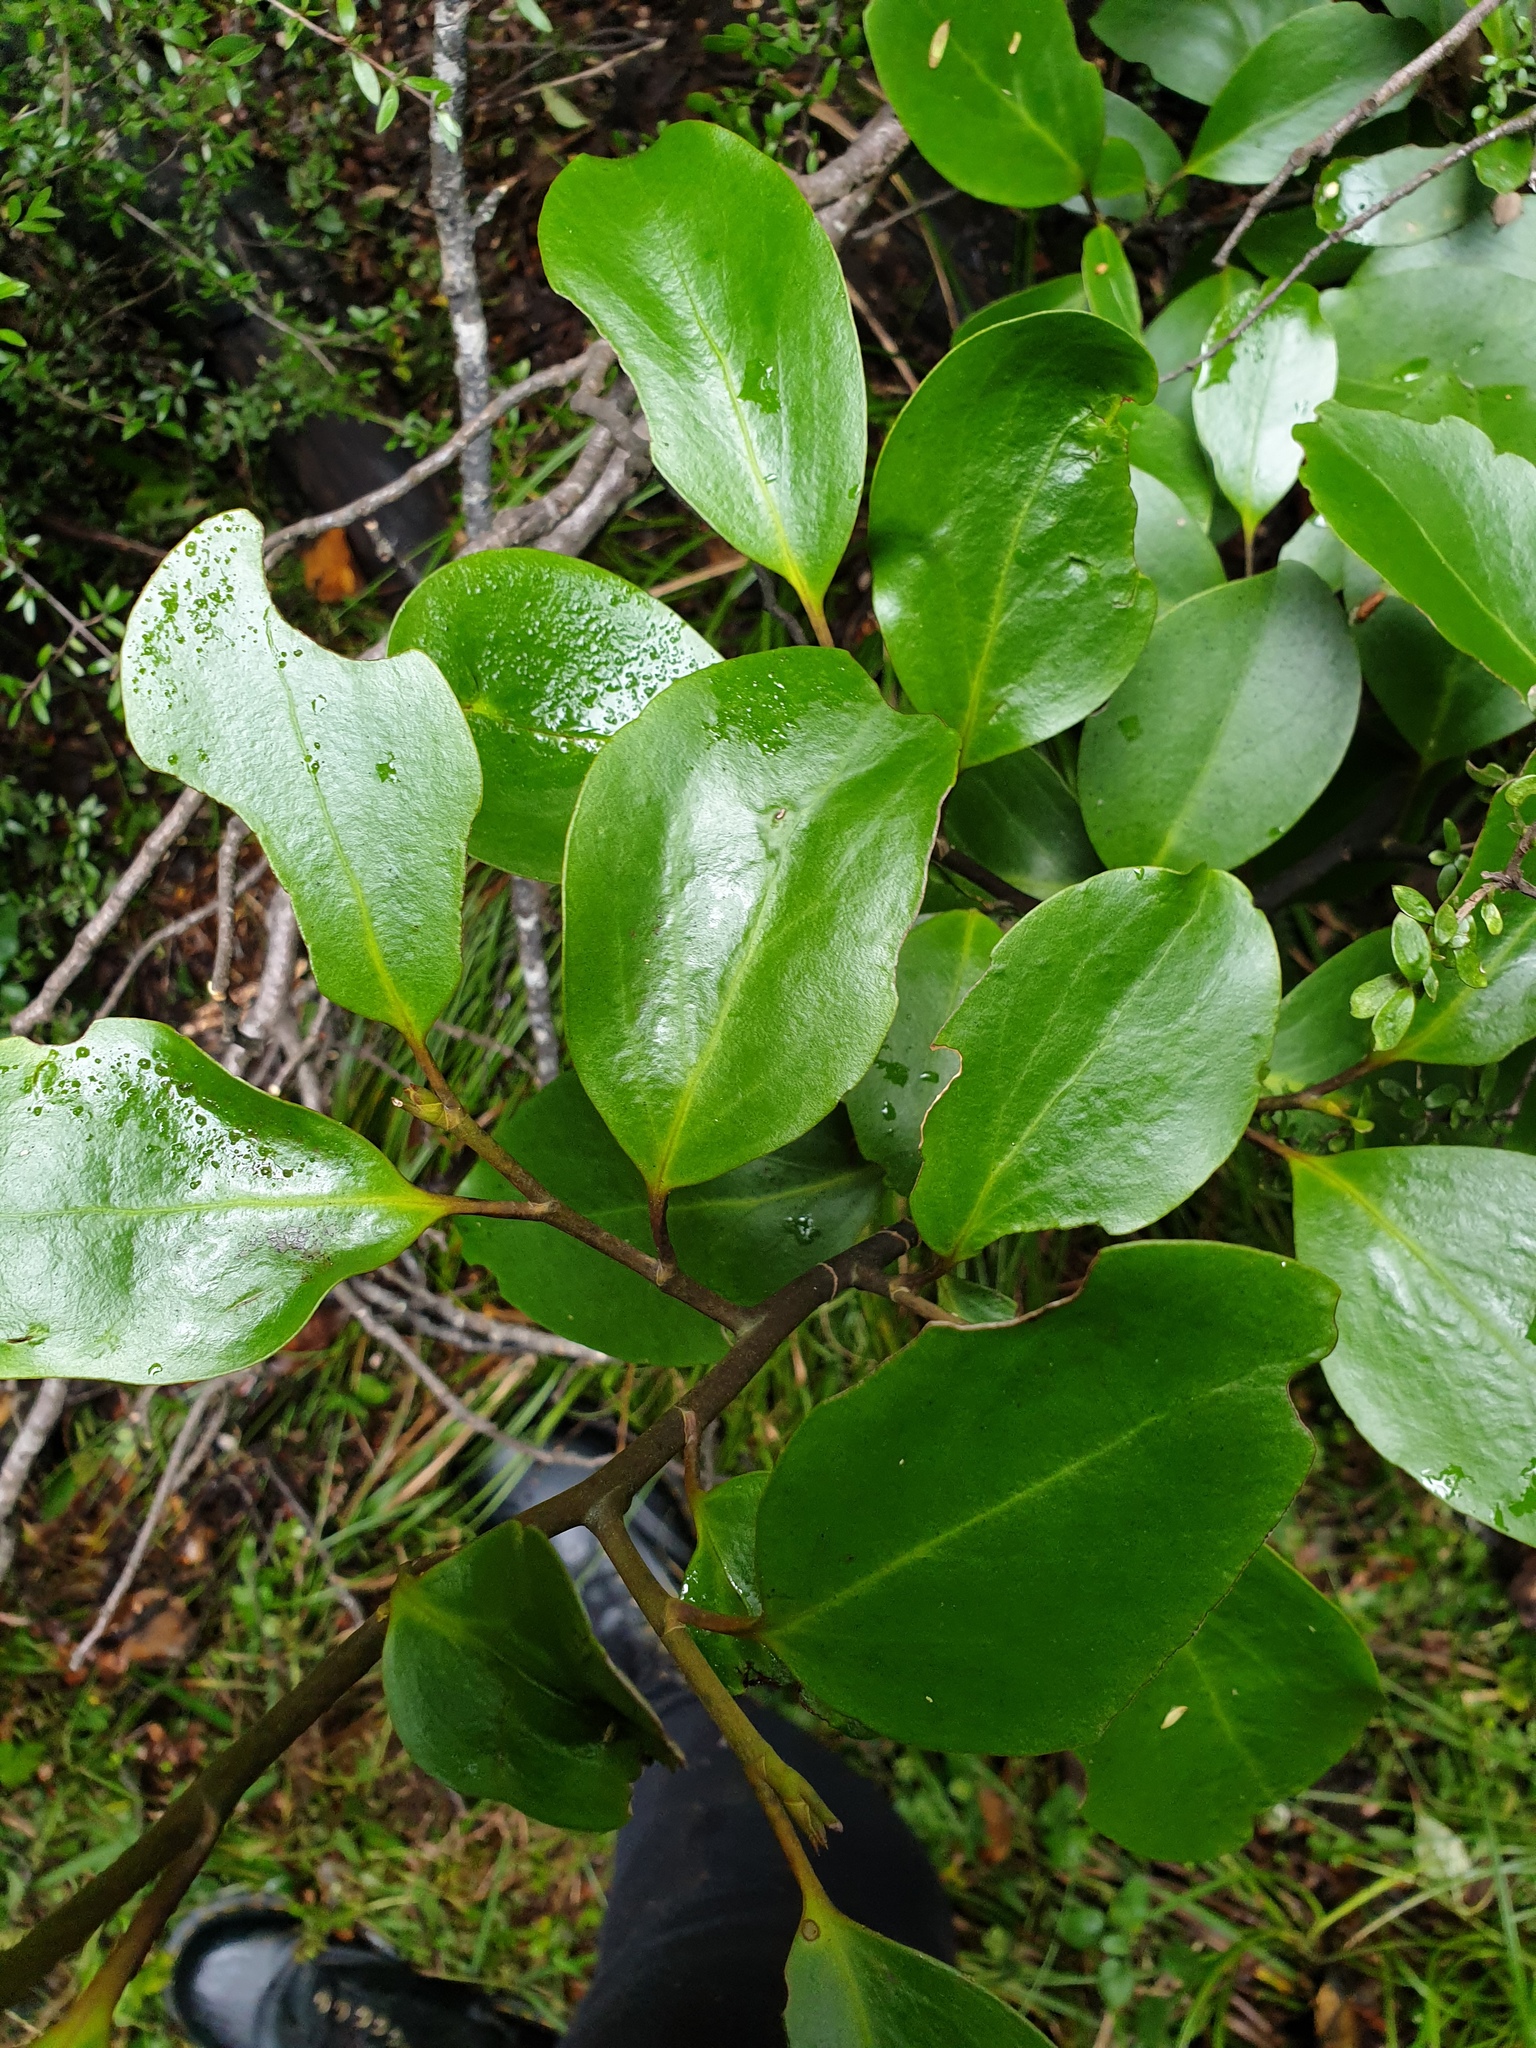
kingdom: Plantae
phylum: Tracheophyta
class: Magnoliopsida
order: Apiales
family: Griseliniaceae
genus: Griselinia
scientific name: Griselinia littoralis
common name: New zealand broadleaf
